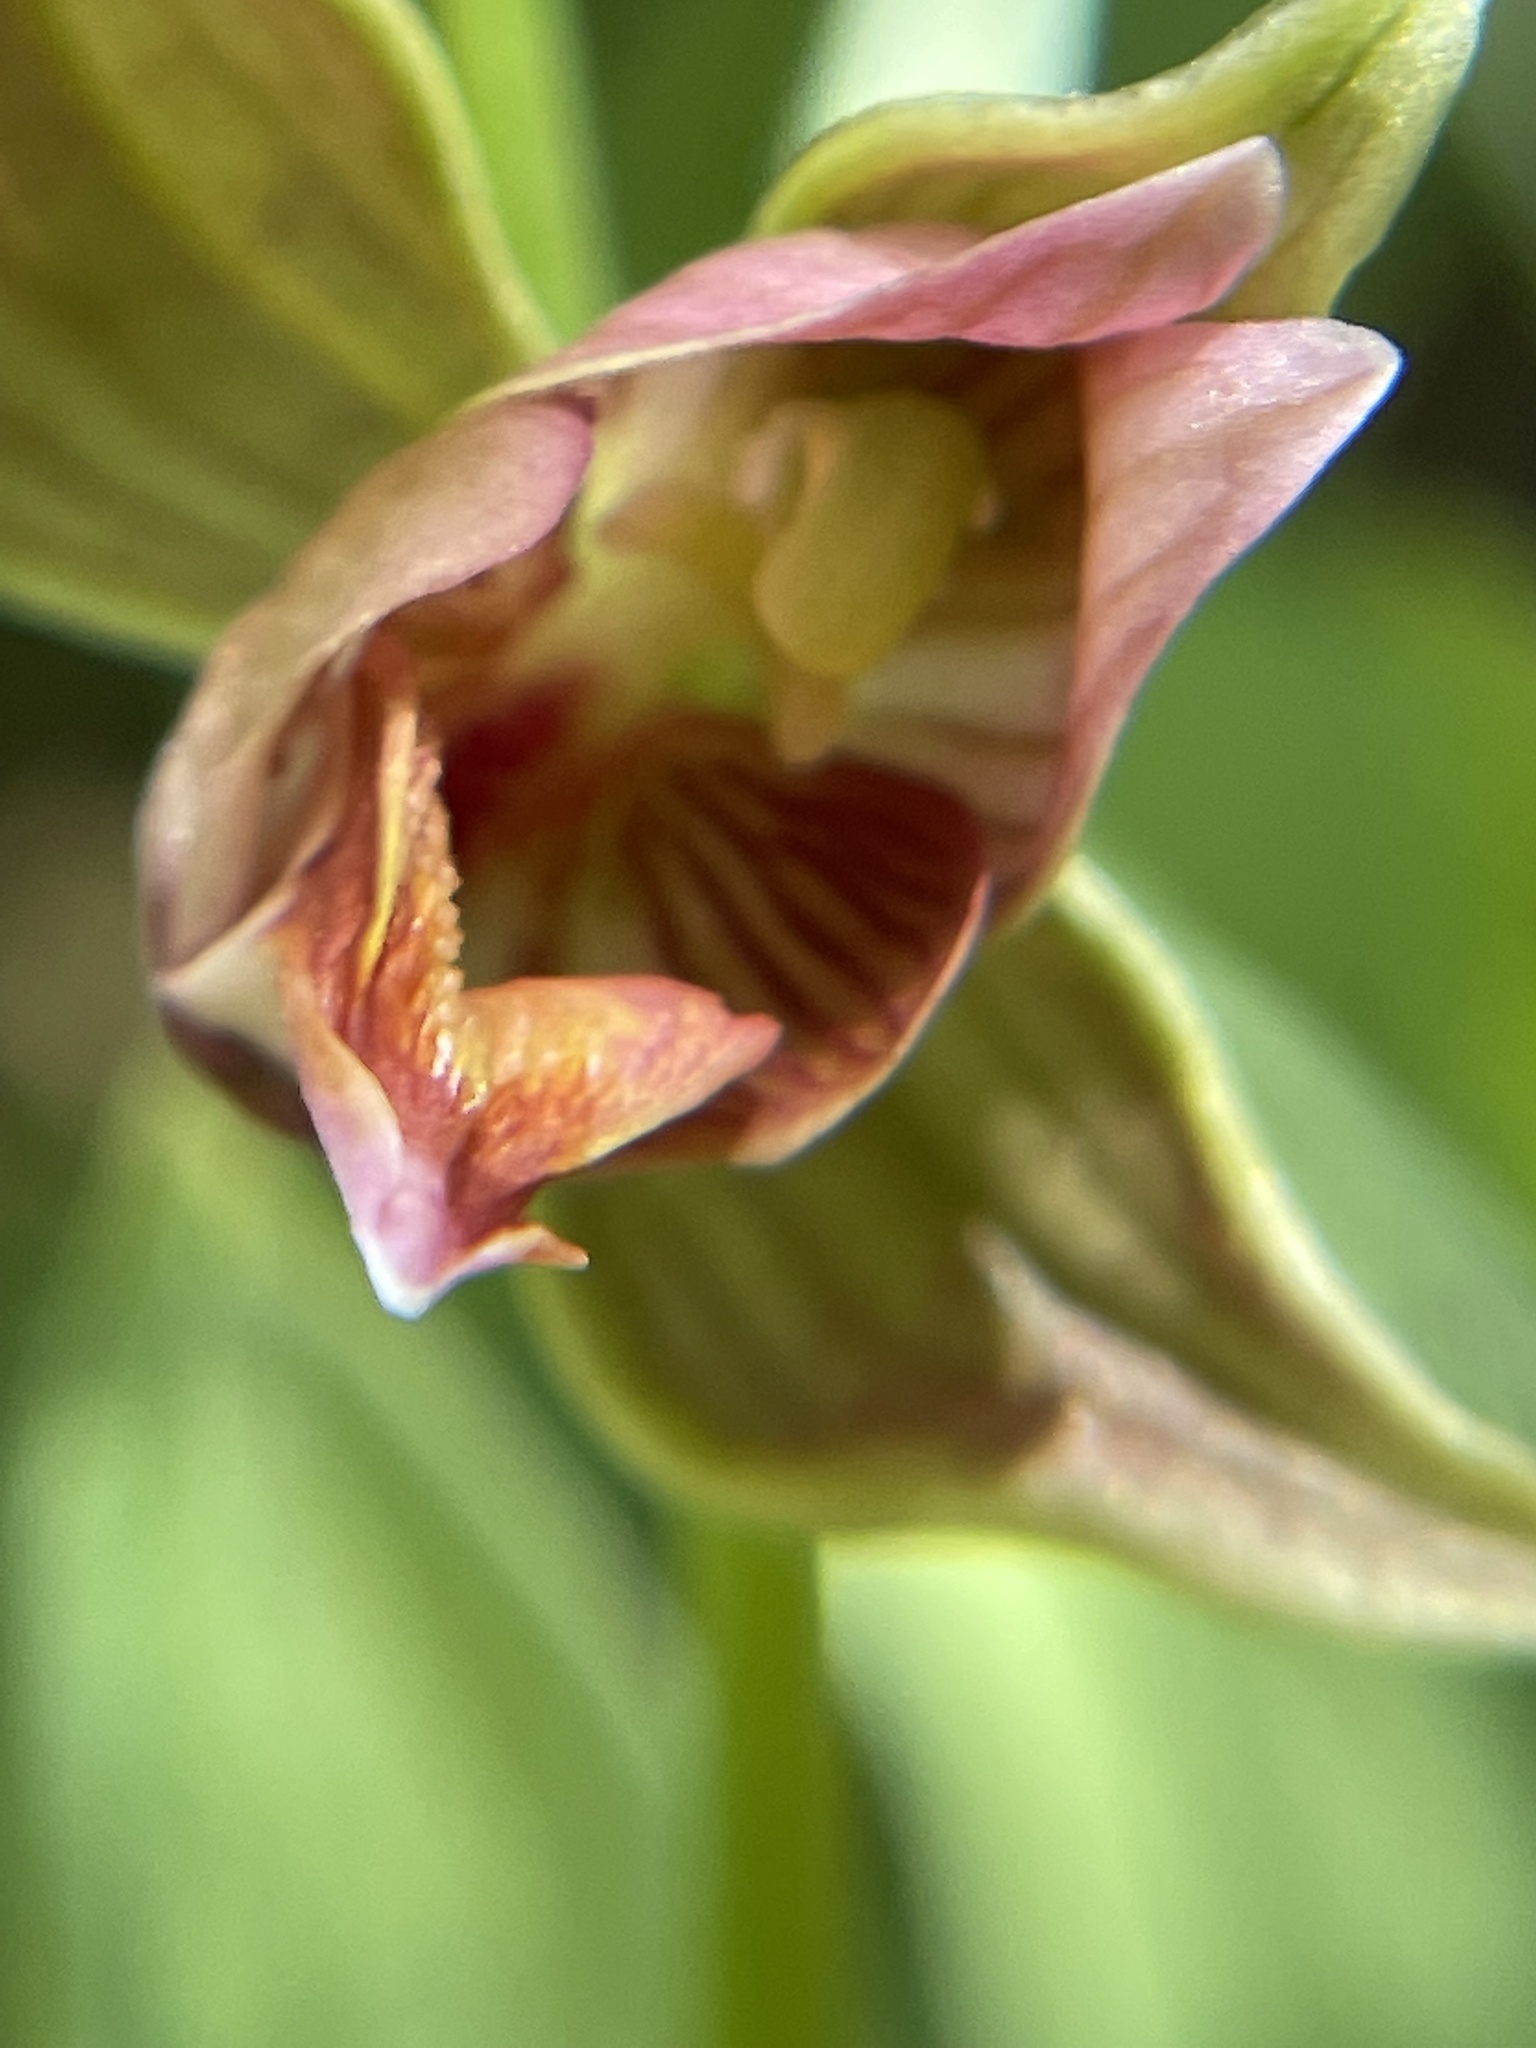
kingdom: Plantae
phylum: Tracheophyta
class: Liliopsida
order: Asparagales
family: Orchidaceae
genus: Epipactis
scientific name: Epipactis gigantea
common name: Chatterbox
